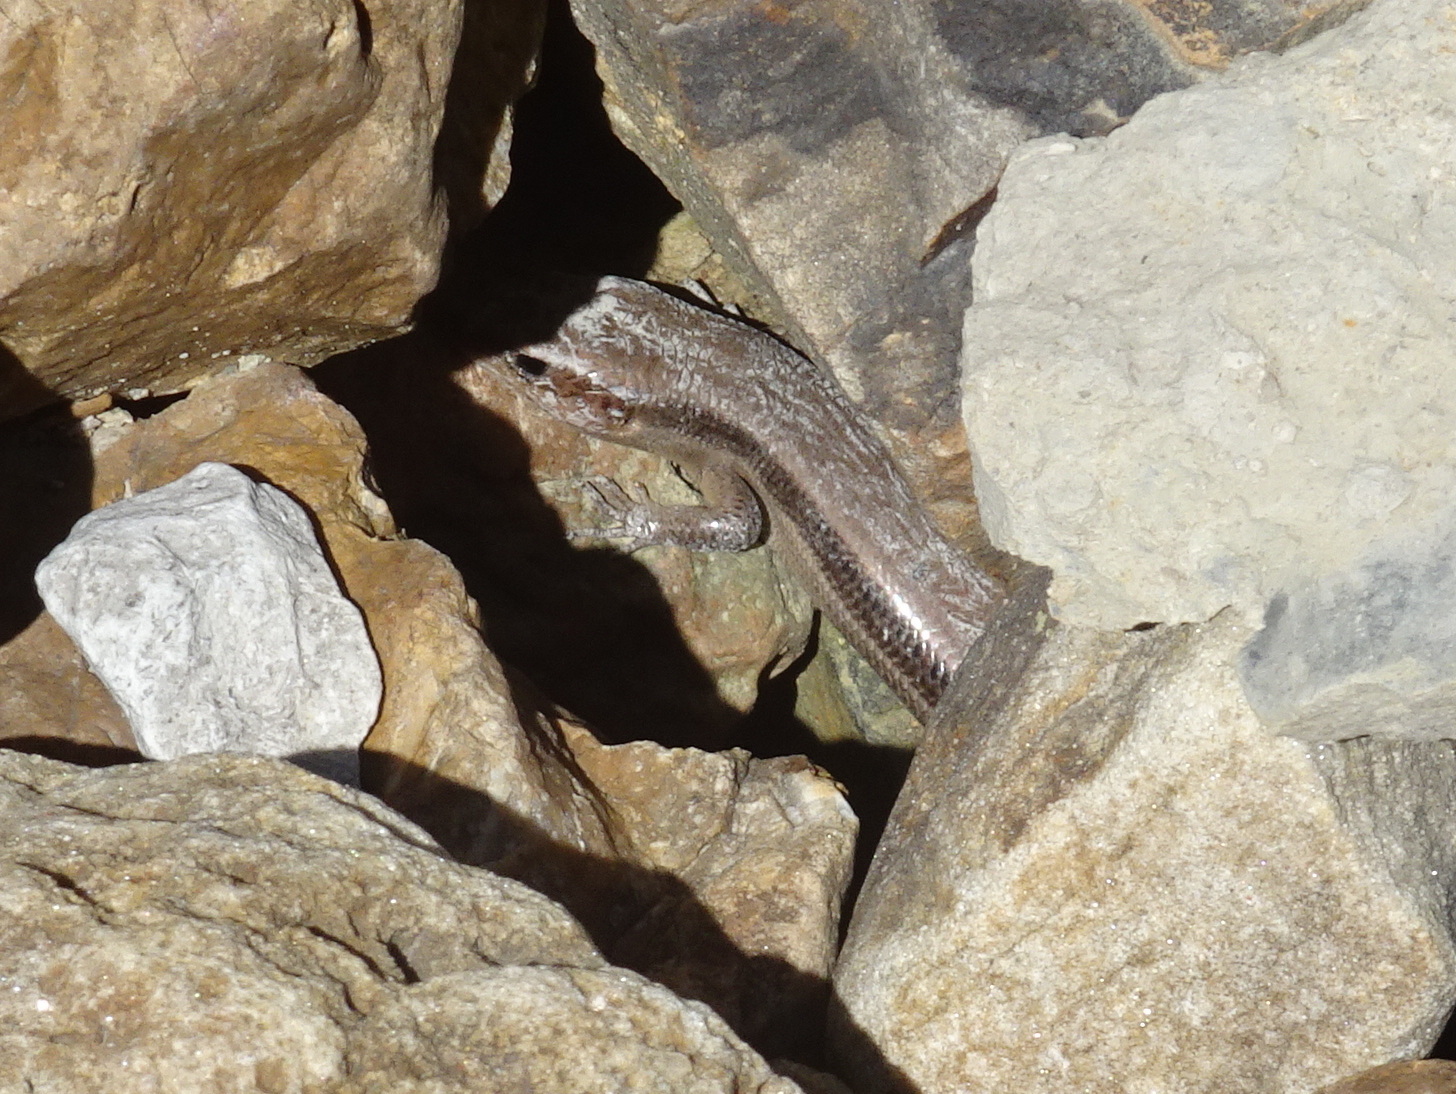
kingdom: Animalia
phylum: Chordata
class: Squamata
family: Scincidae
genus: Plestiodon
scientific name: Plestiodon fasciatus
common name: Five-lined skink
